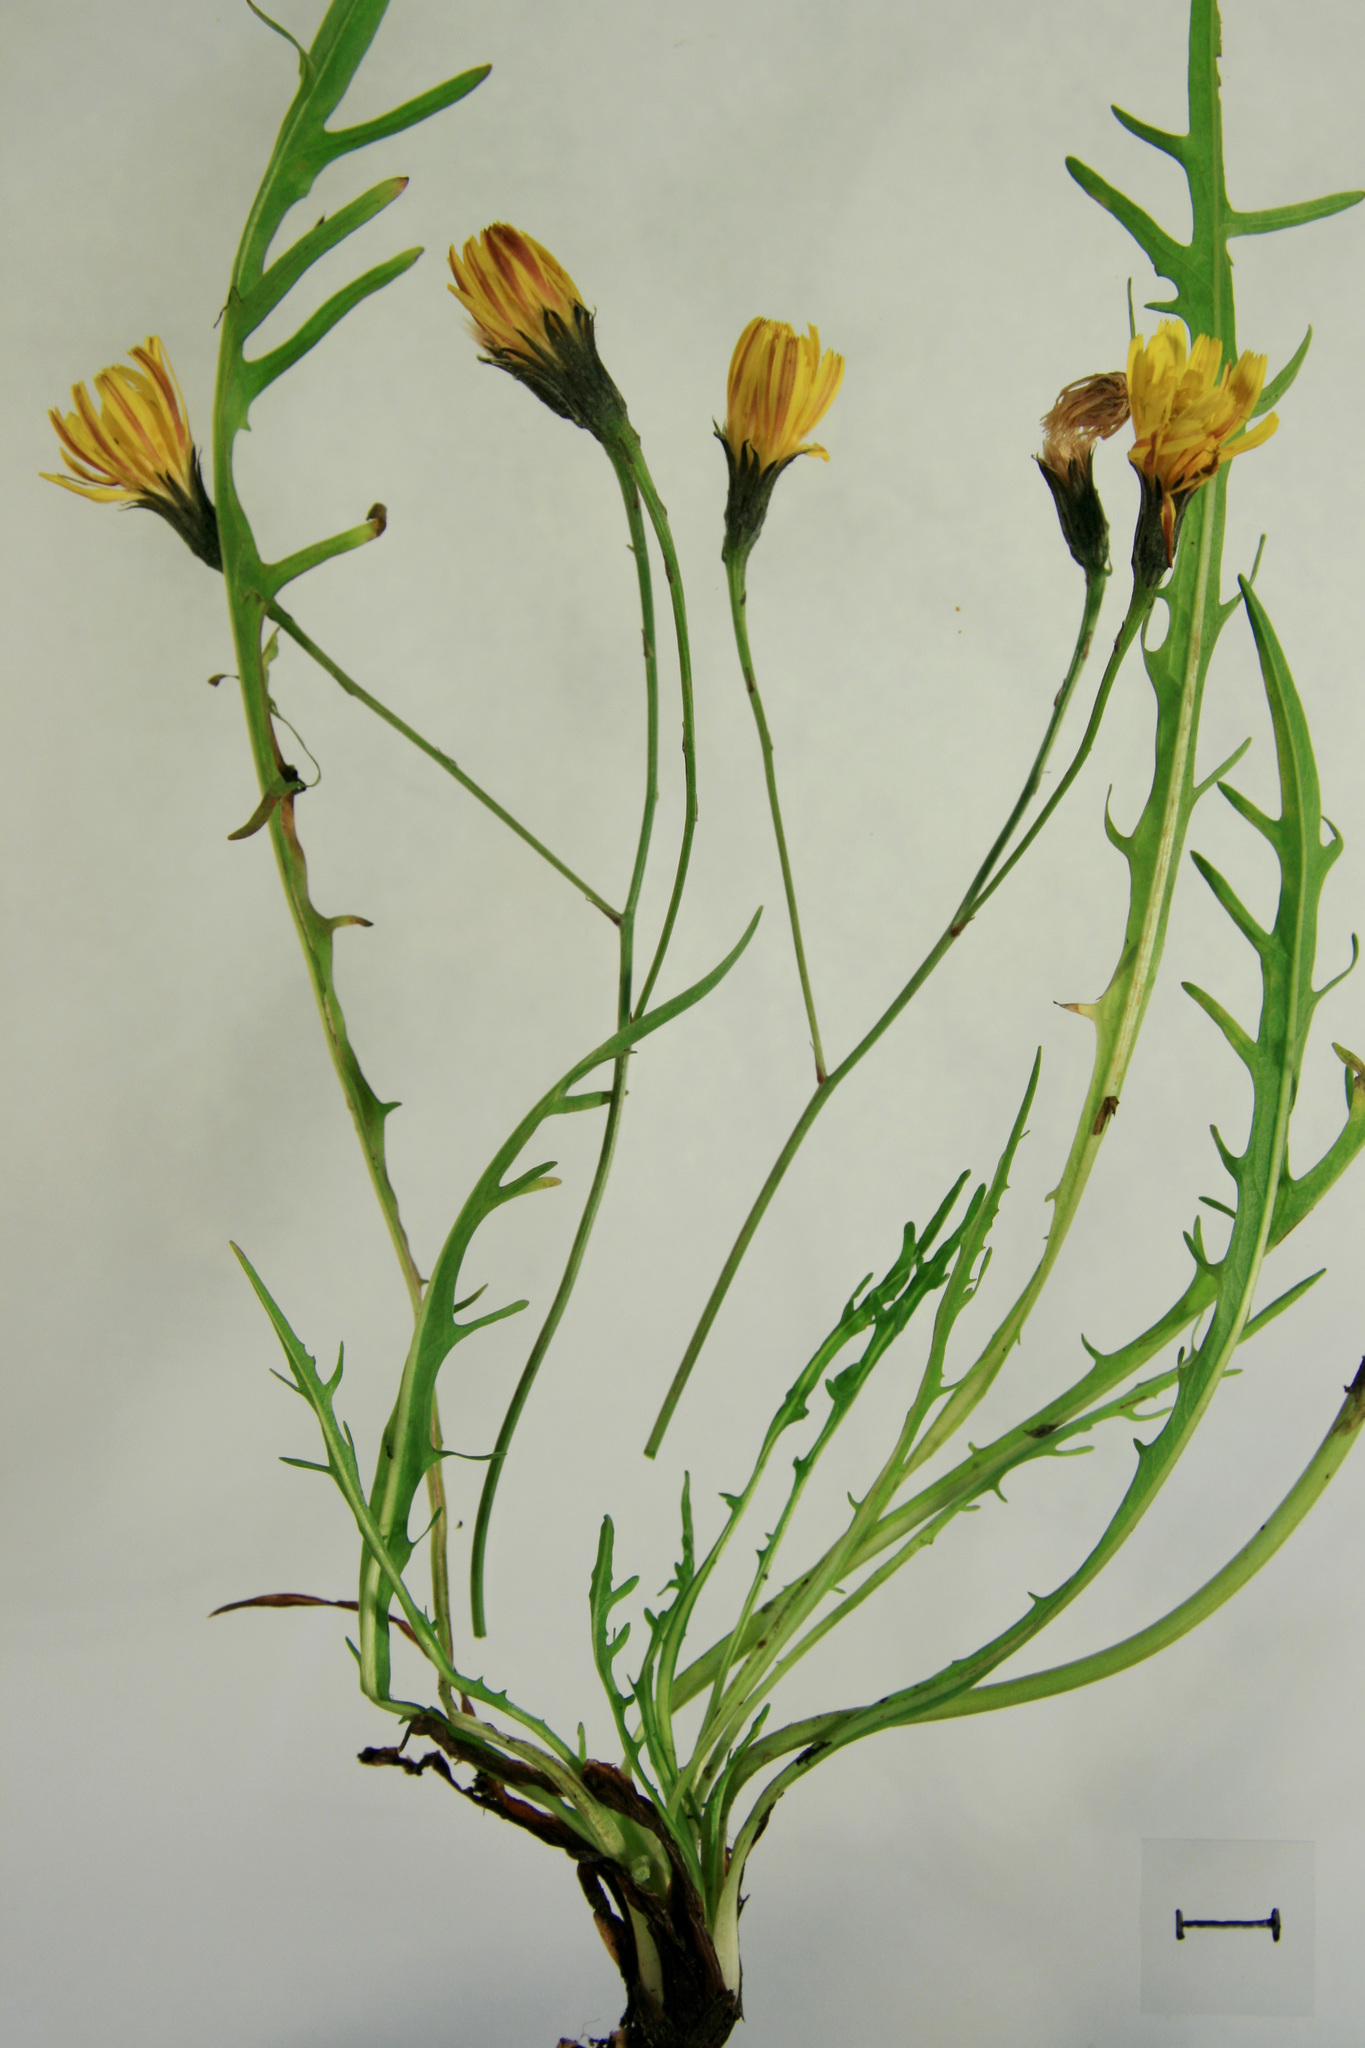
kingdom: Plantae
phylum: Tracheophyta
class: Magnoliopsida
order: Asterales
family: Asteraceae
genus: Scorzoneroides
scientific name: Scorzoneroides autumnalis
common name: Autumn hawkbit
